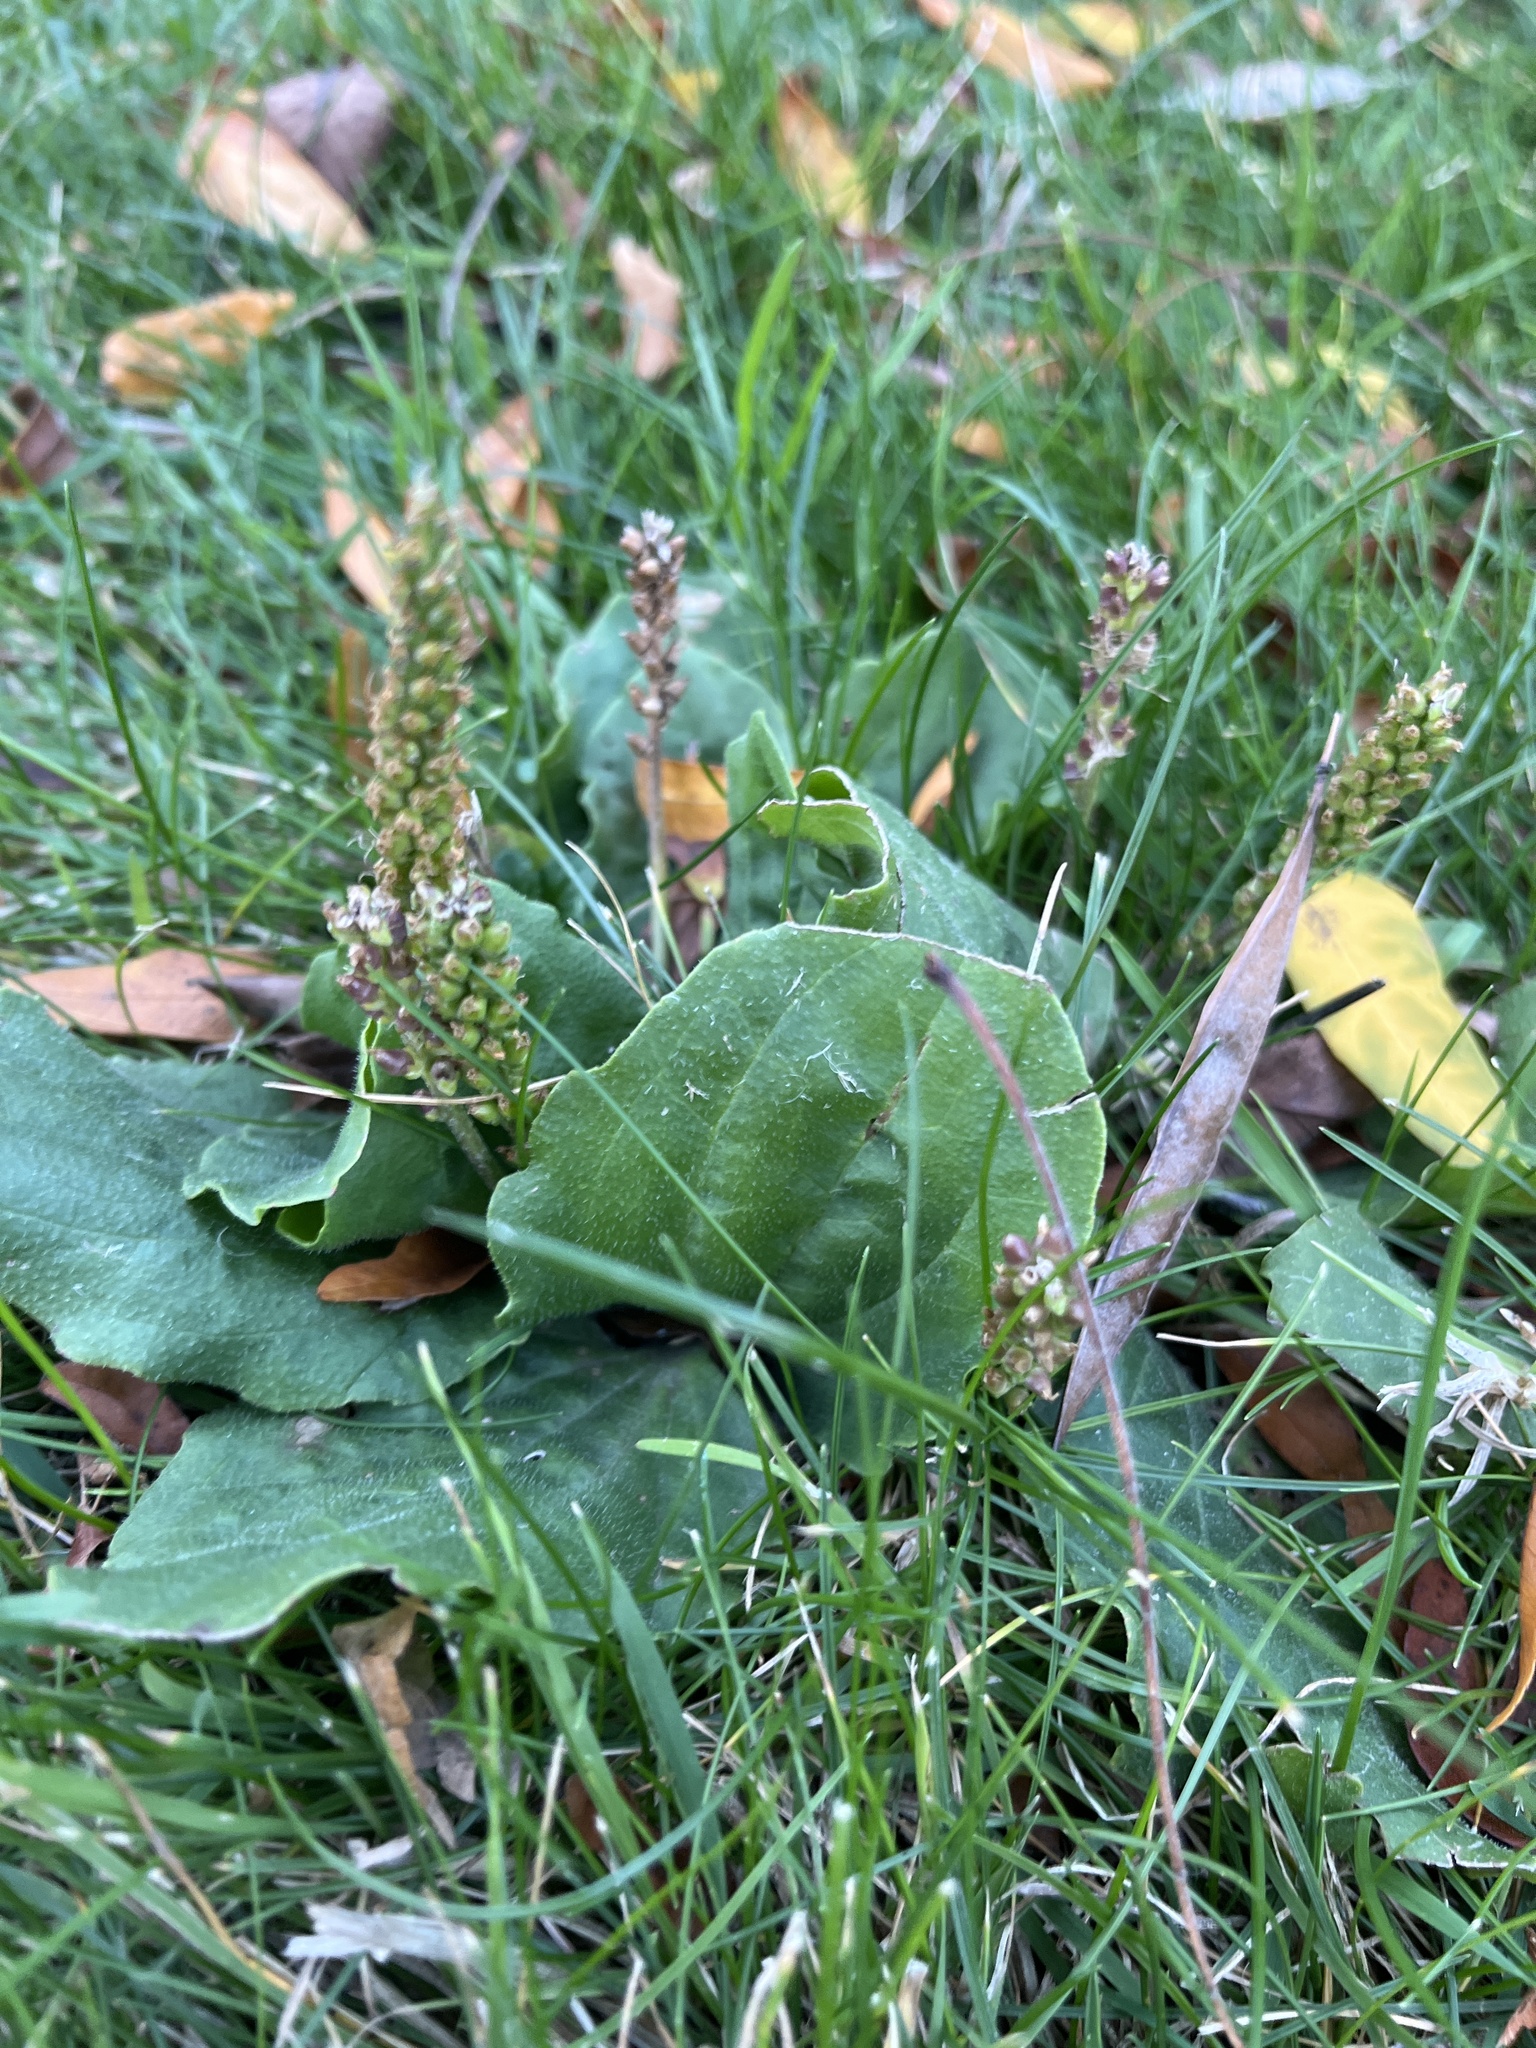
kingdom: Plantae
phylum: Tracheophyta
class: Magnoliopsida
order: Lamiales
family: Plantaginaceae
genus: Plantago
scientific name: Plantago major
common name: Common plantain
